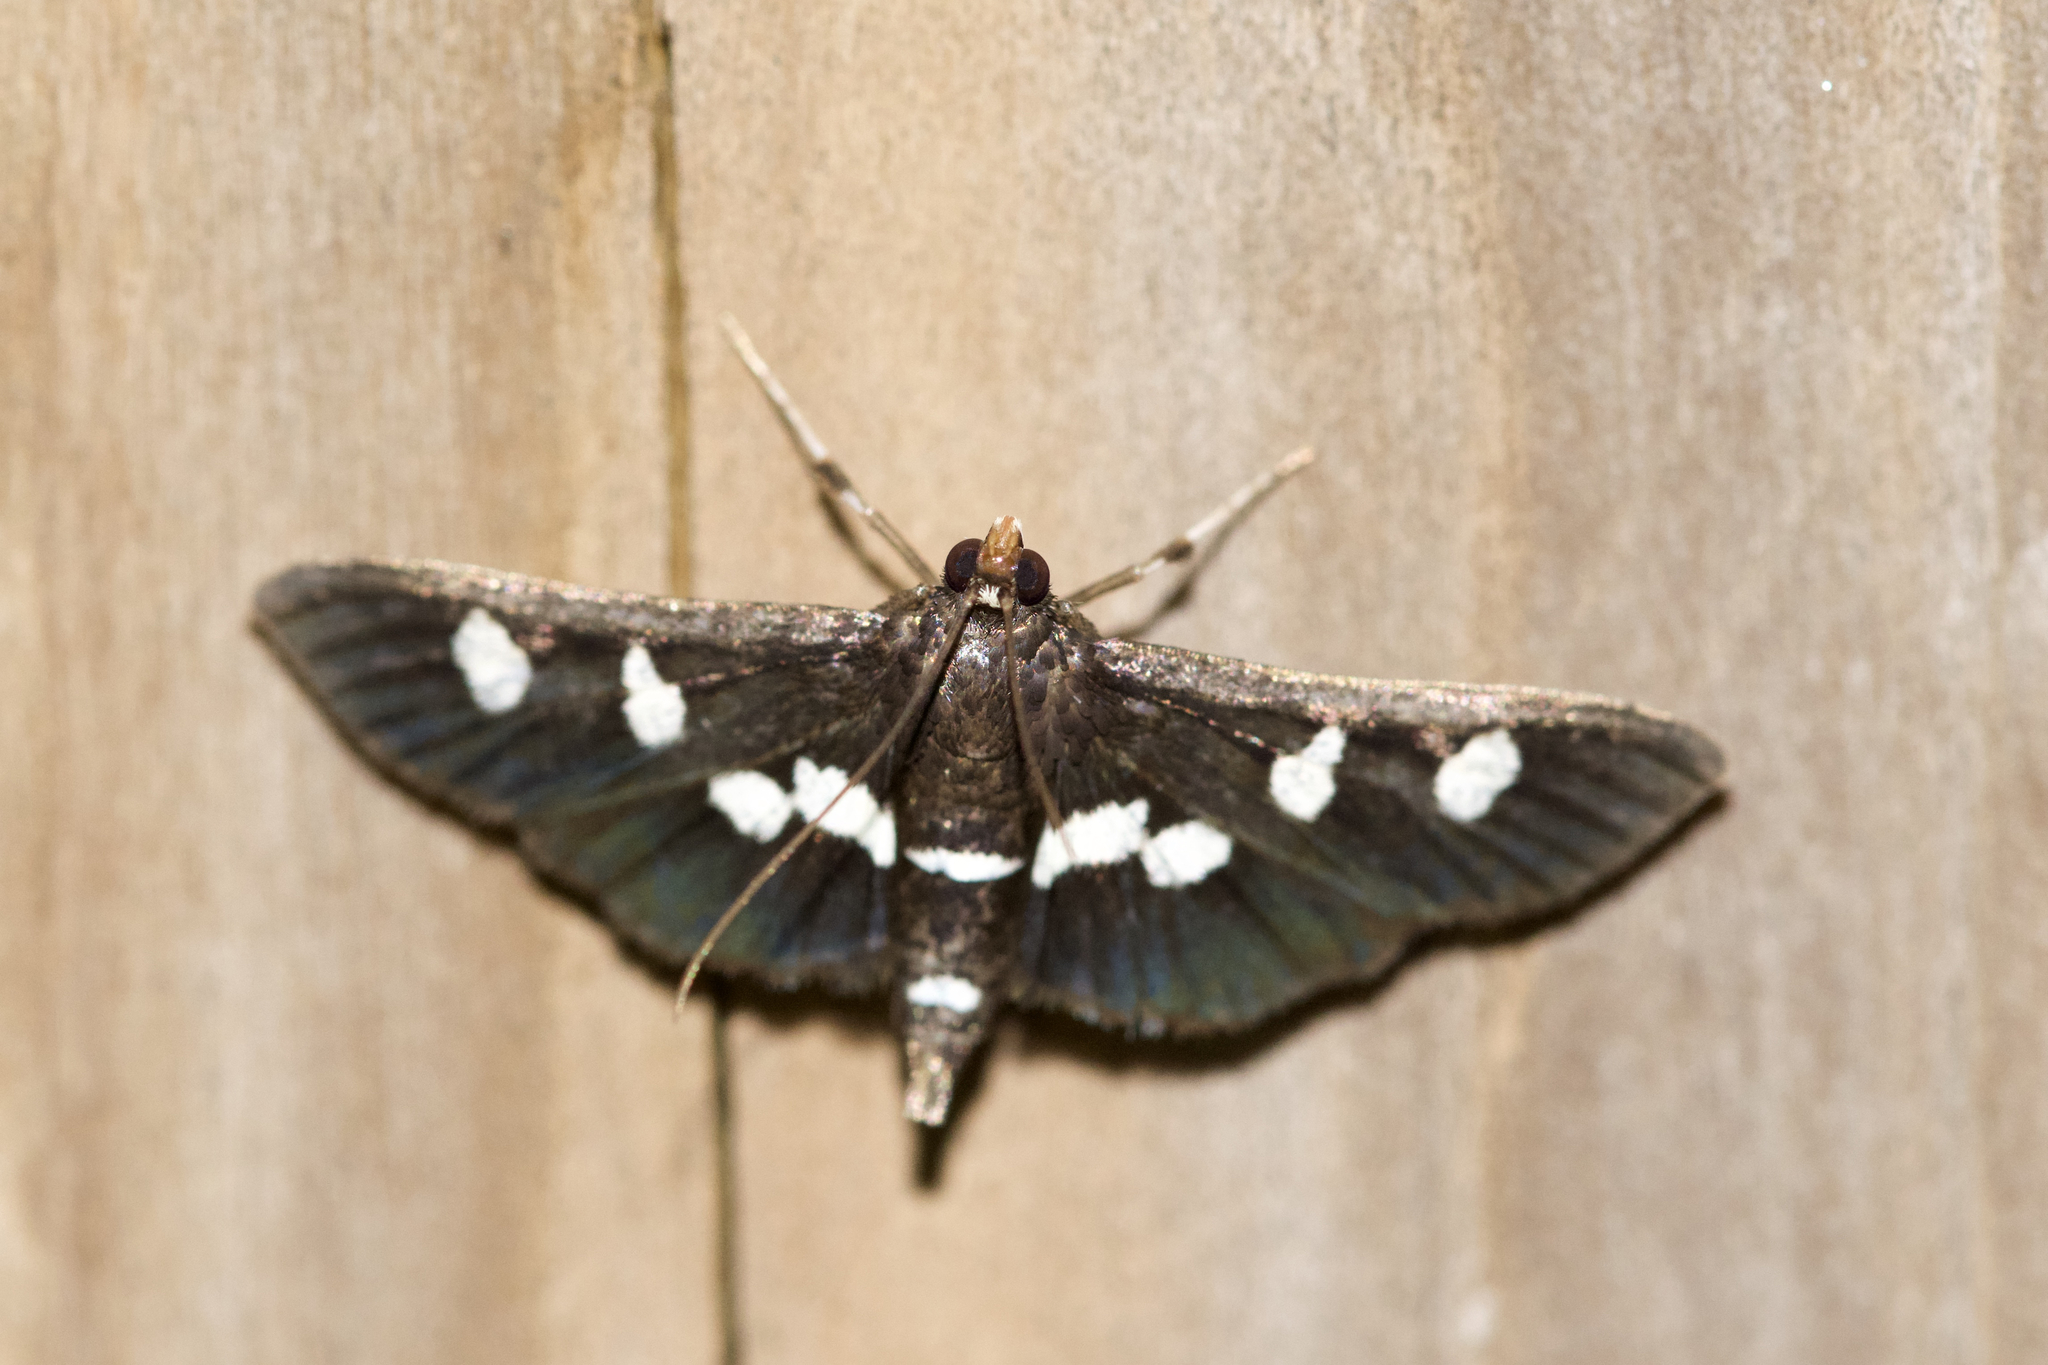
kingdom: Animalia
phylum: Arthropoda
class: Insecta
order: Lepidoptera
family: Crambidae
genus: Desmia
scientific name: Desmia funeralis
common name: Grape leaf folder moth
